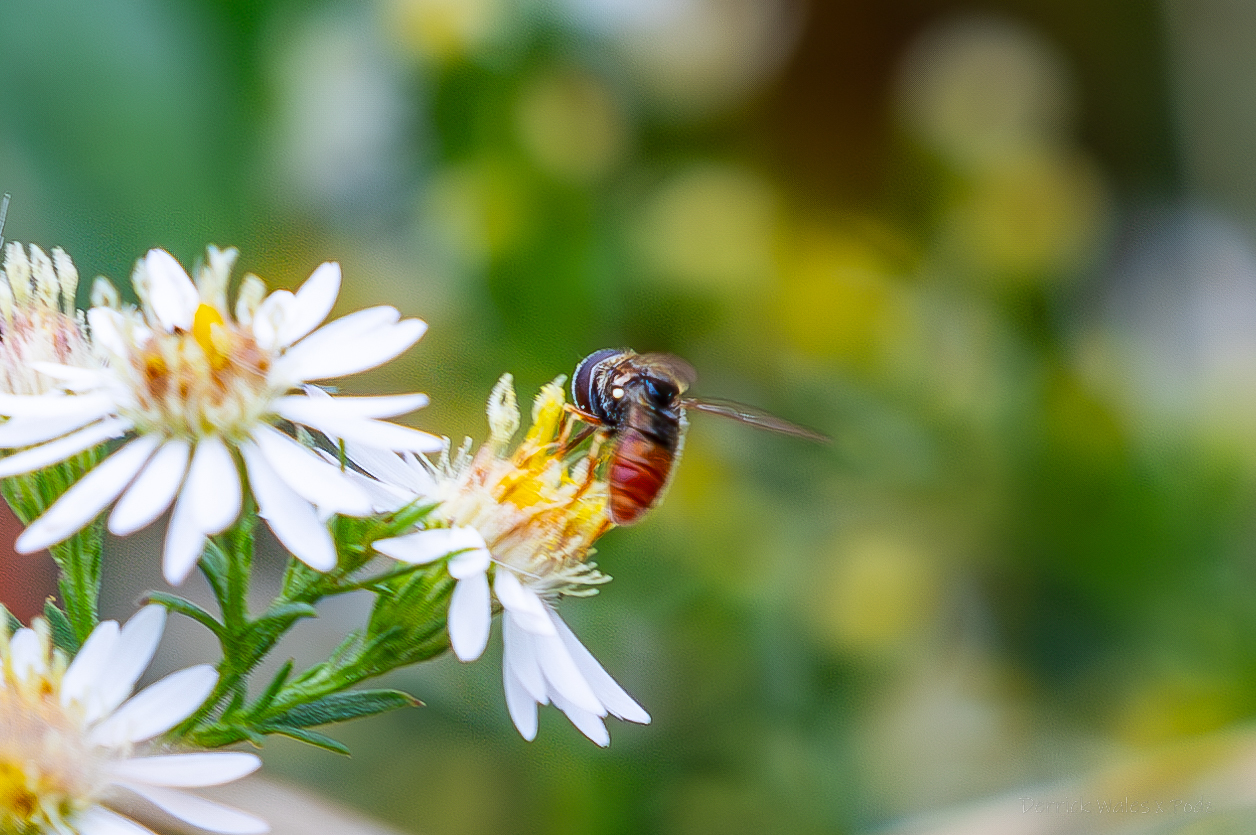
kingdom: Animalia
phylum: Arthropoda
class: Insecta
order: Diptera
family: Syrphidae
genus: Paragus
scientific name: Paragus haemorrhous
